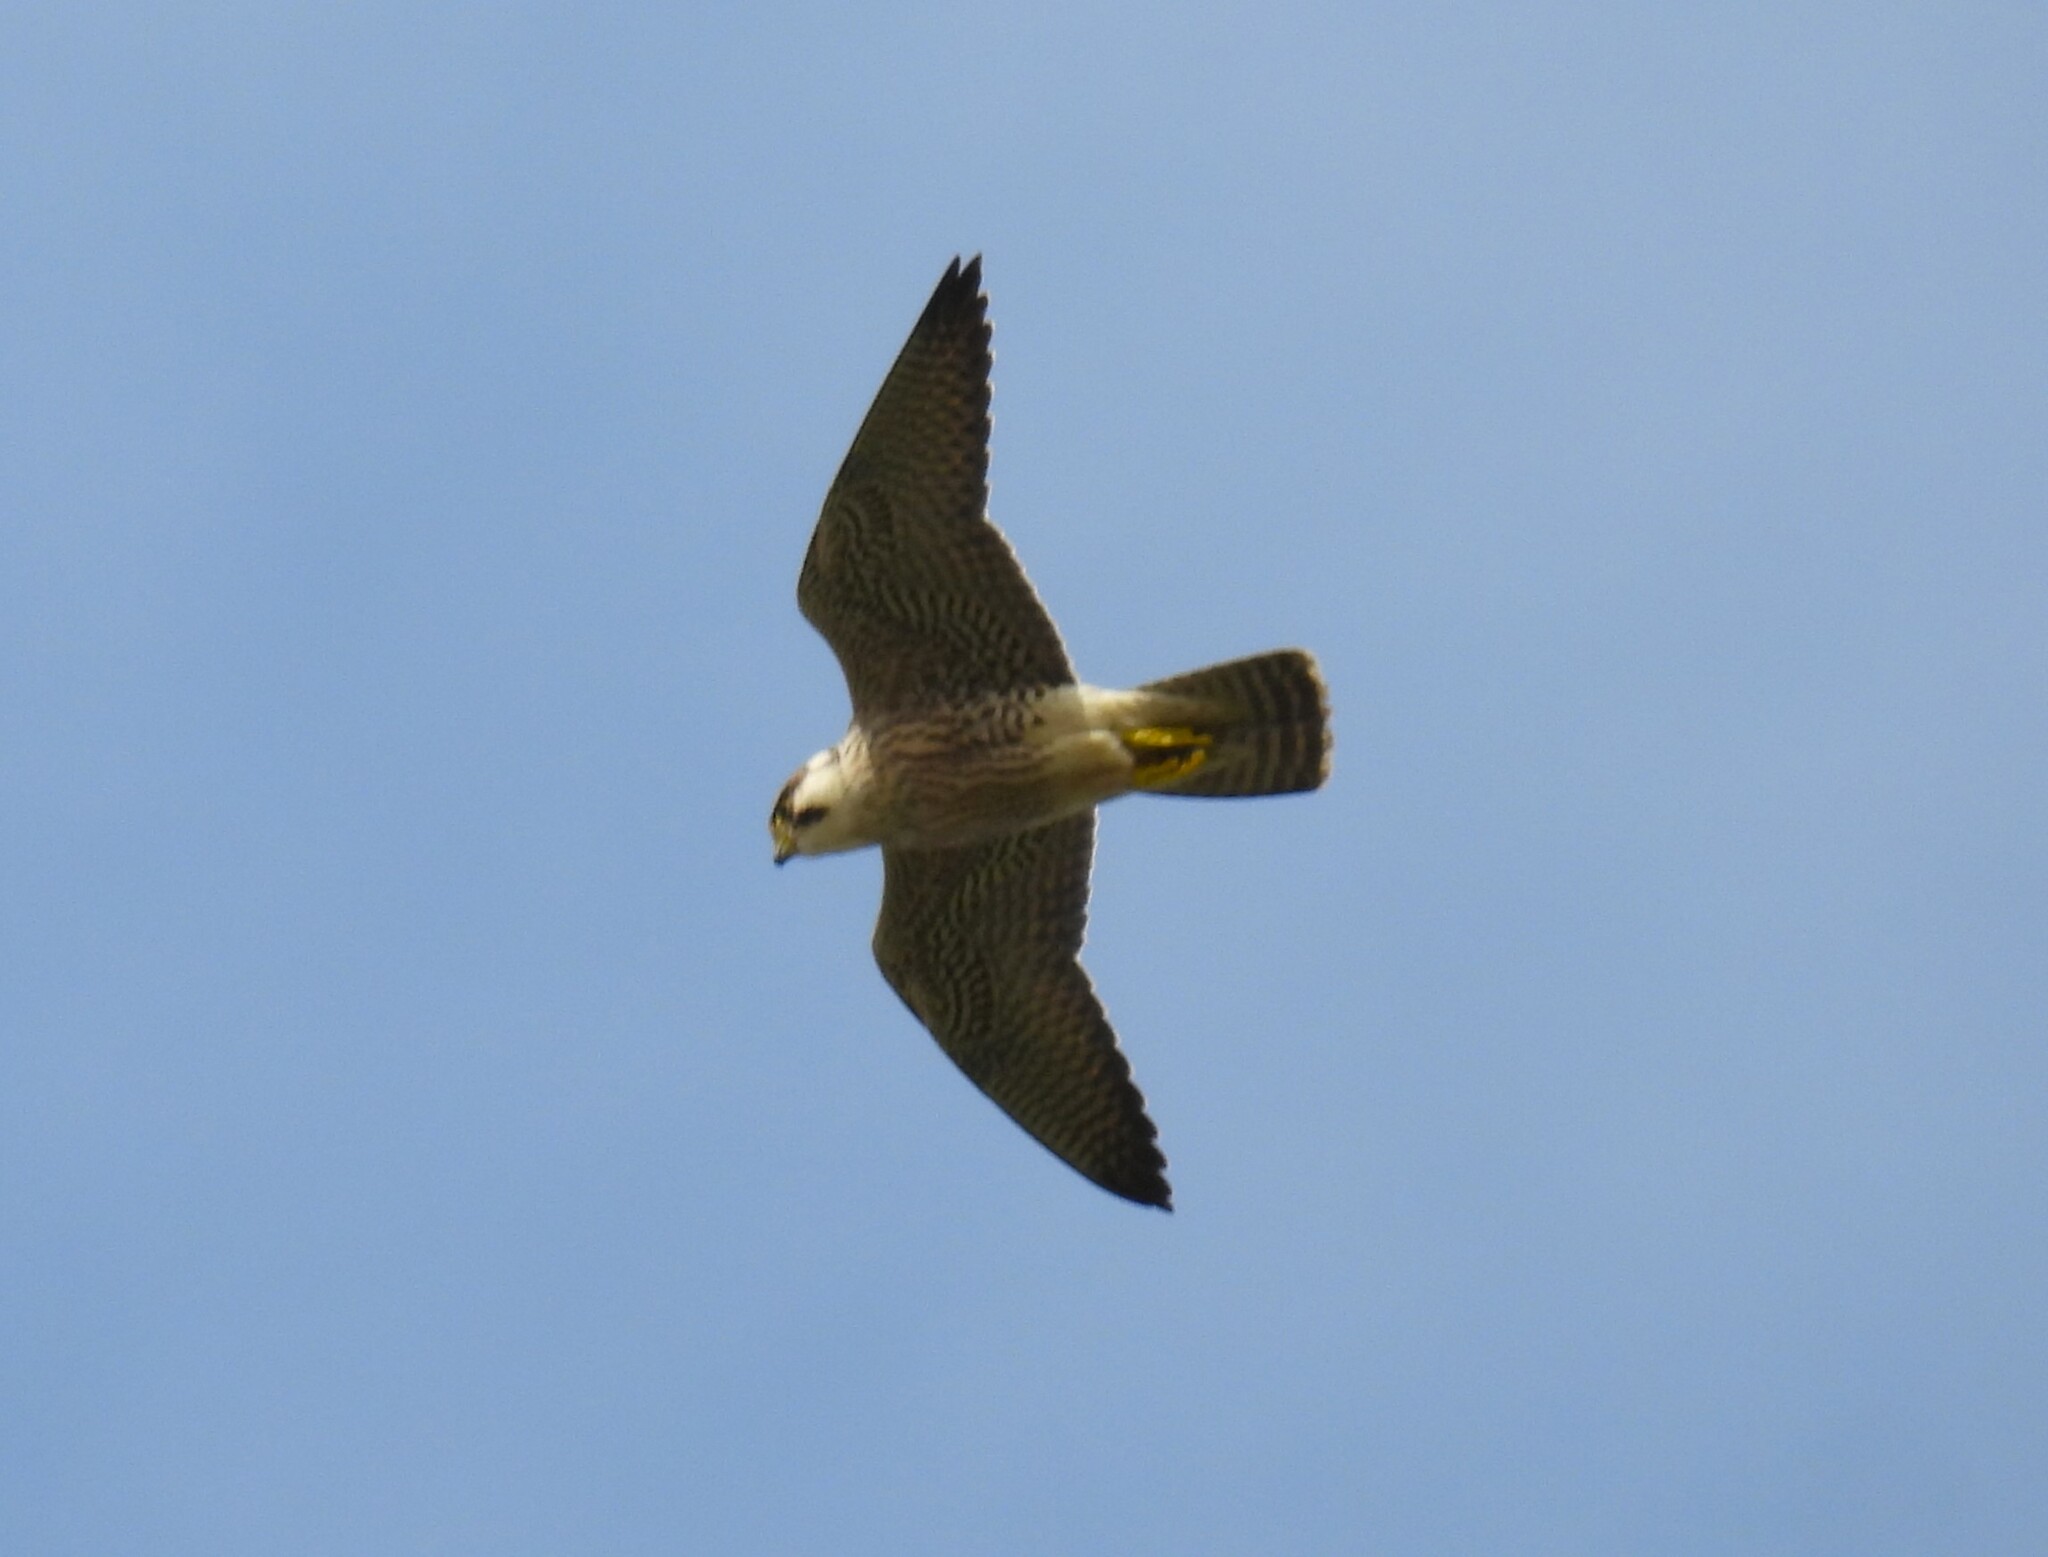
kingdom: Animalia
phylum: Chordata
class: Aves
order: Falconiformes
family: Falconidae
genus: Falco
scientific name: Falco peregrinus
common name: Peregrine falcon
